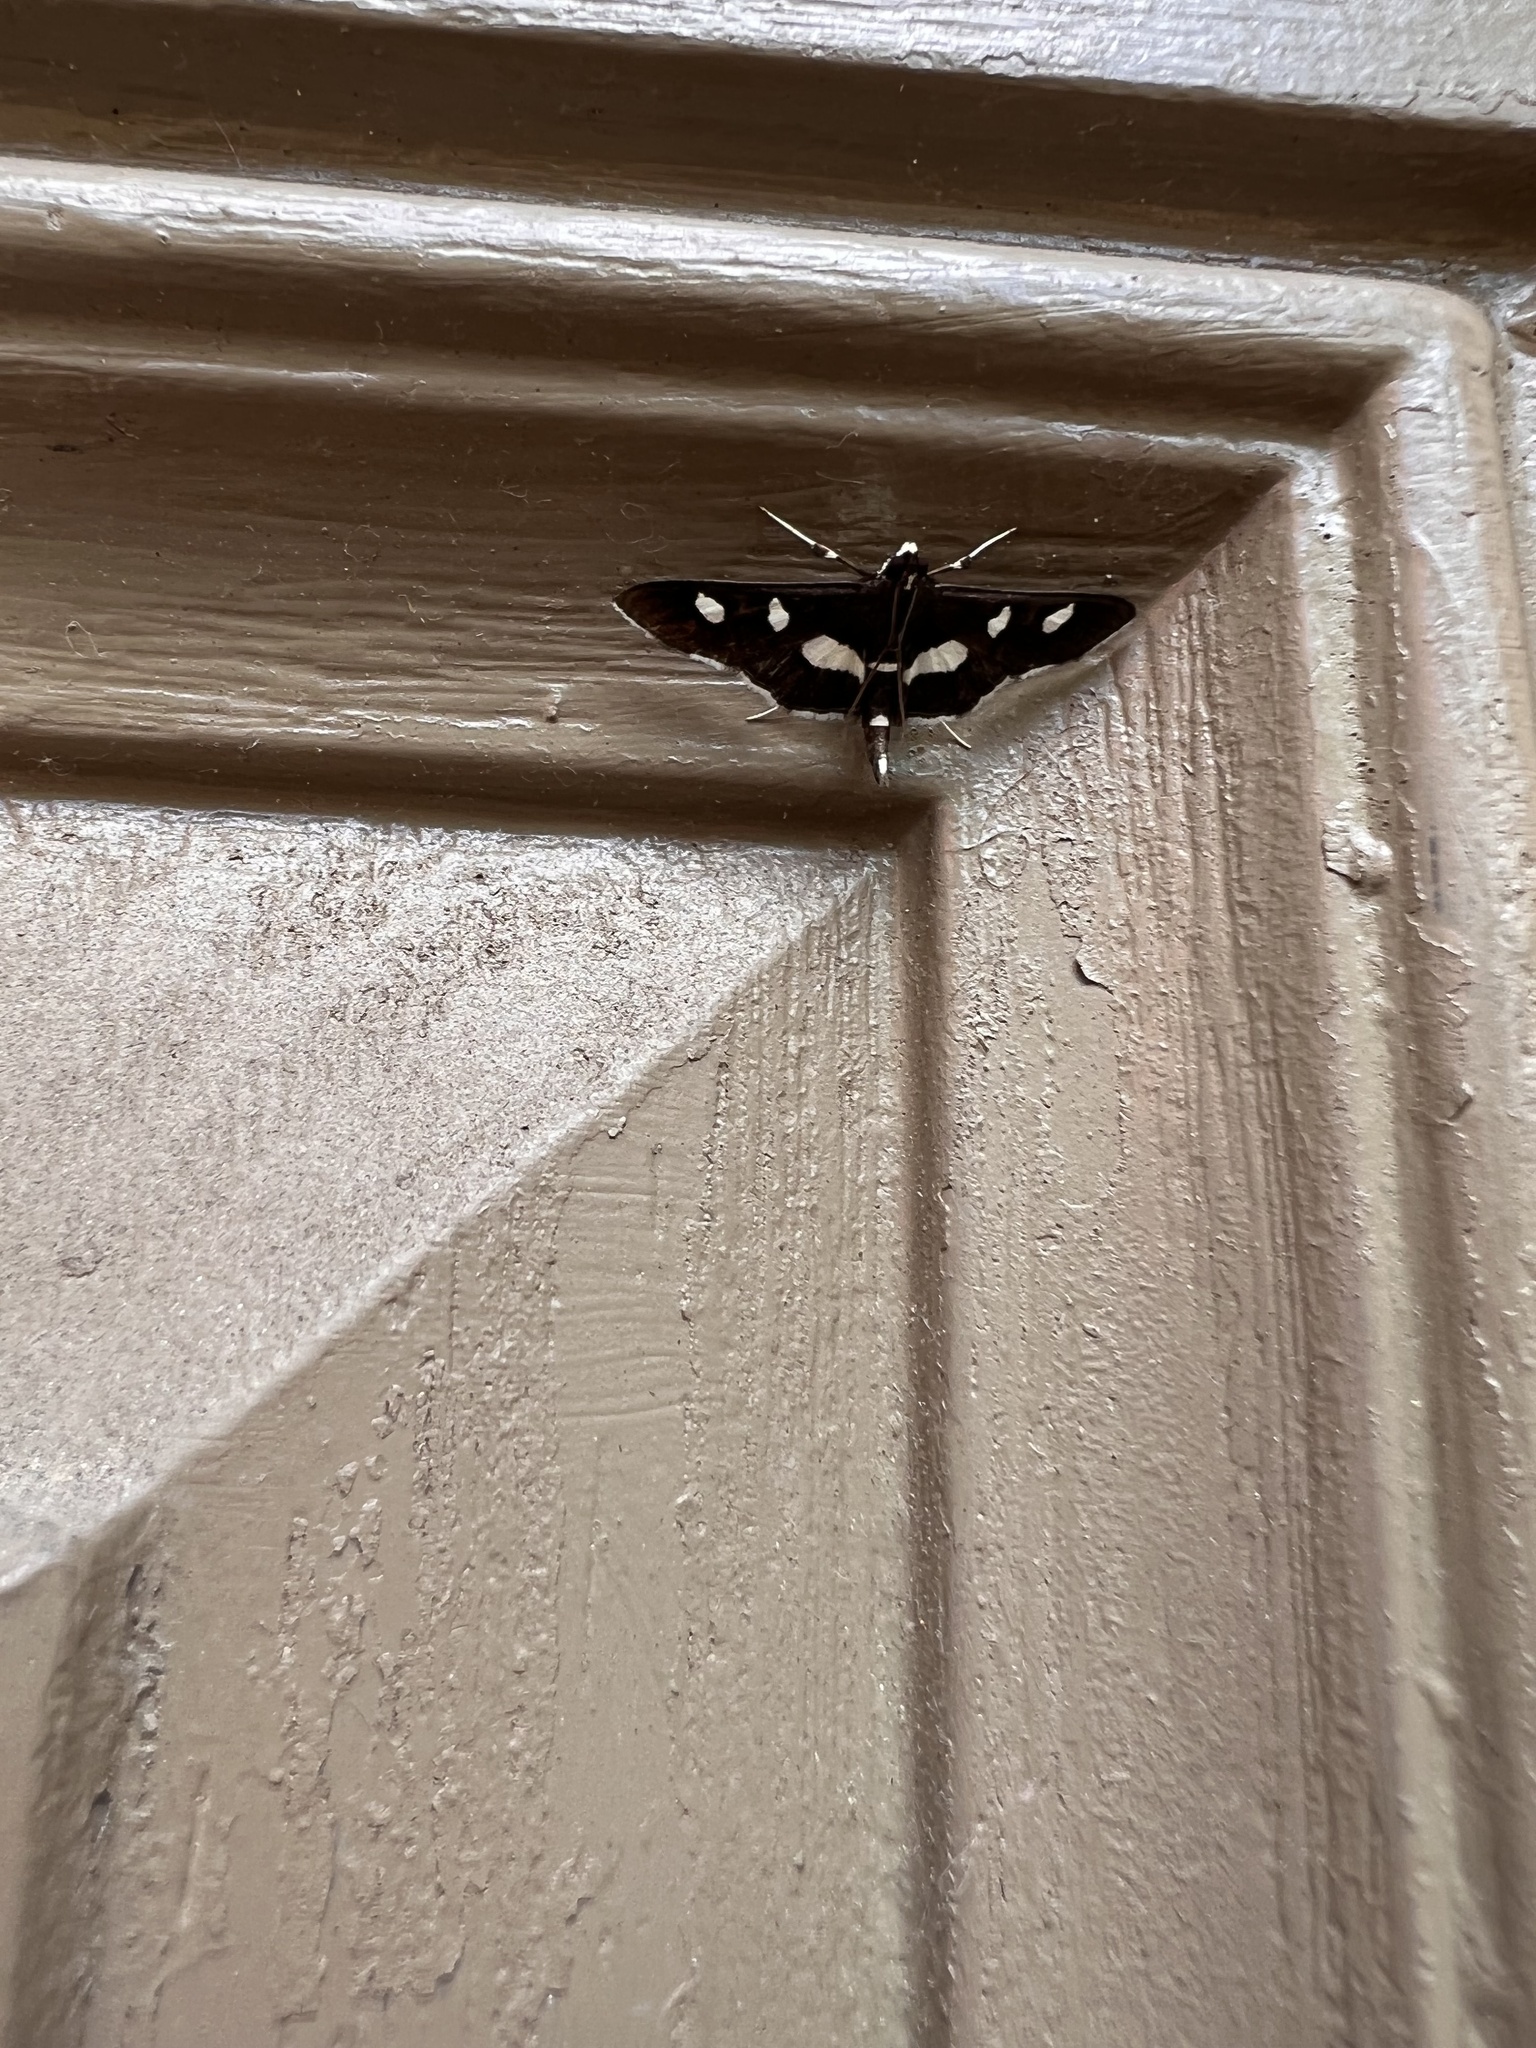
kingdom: Animalia
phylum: Arthropoda
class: Insecta
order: Lepidoptera
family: Crambidae
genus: Desmia
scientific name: Desmia
